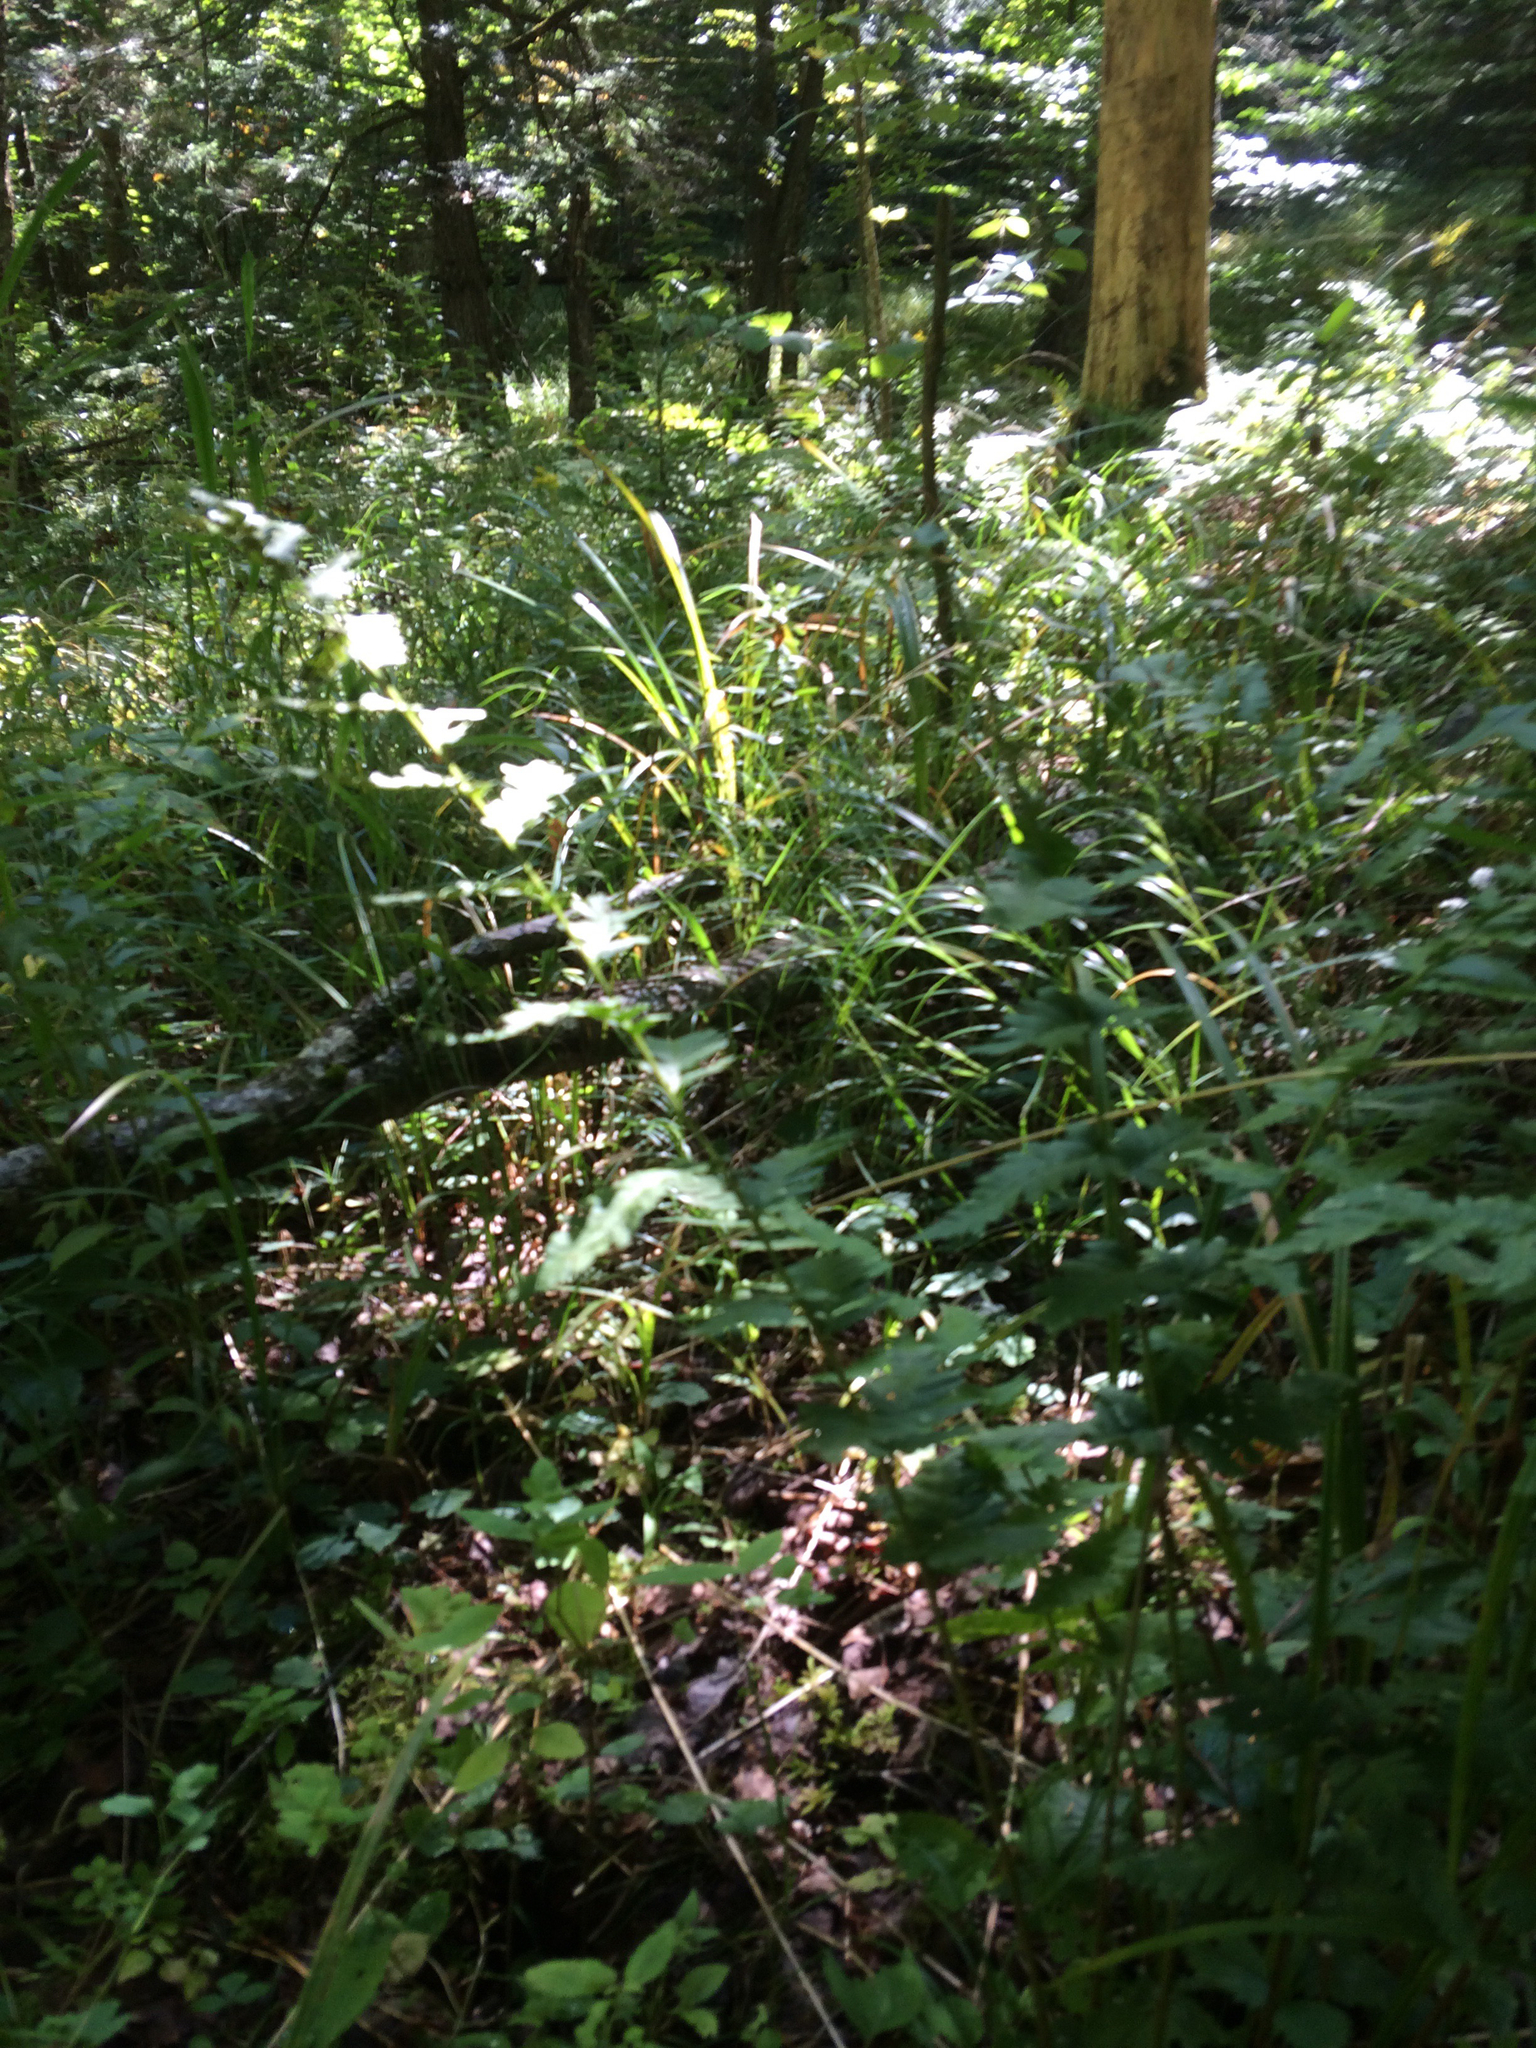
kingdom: Plantae
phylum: Tracheophyta
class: Polypodiopsida
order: Polypodiales
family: Dryopteridaceae
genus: Dryopteris
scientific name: Dryopteris cristata
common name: Crested wood fern
